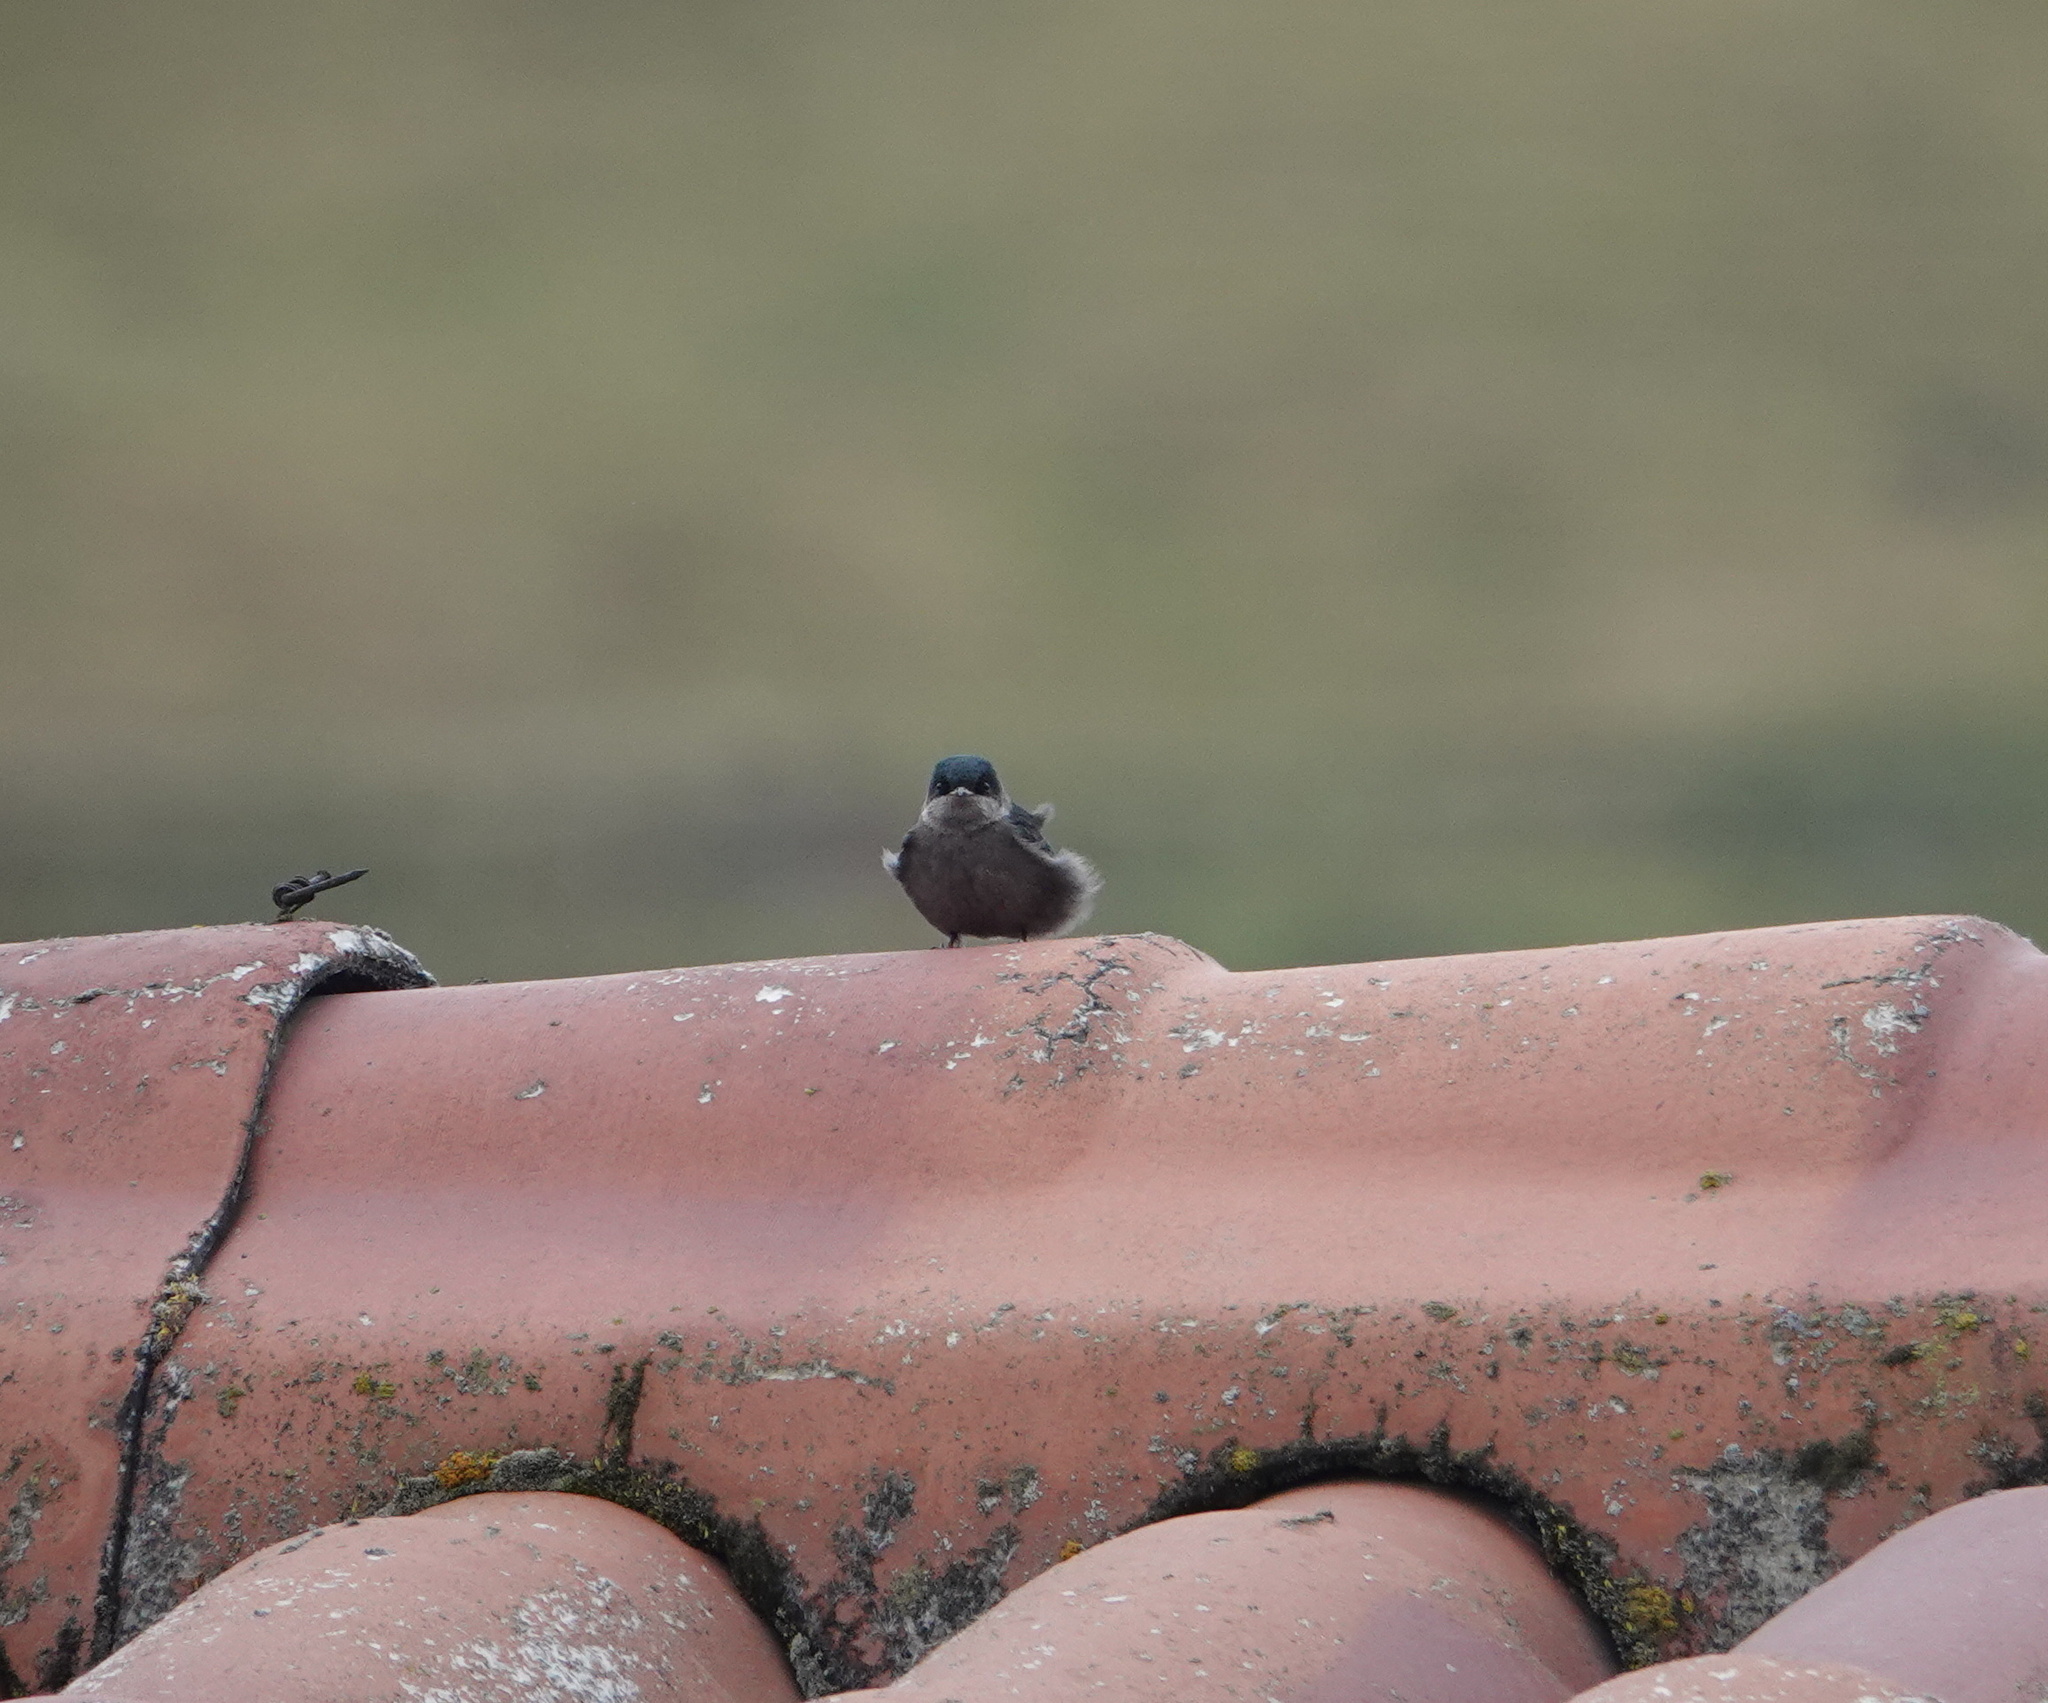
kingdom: Animalia
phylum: Chordata
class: Aves
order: Passeriformes
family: Hirundinidae
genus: Notiochelidon
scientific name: Notiochelidon murina
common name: Brown-bellied swallow
